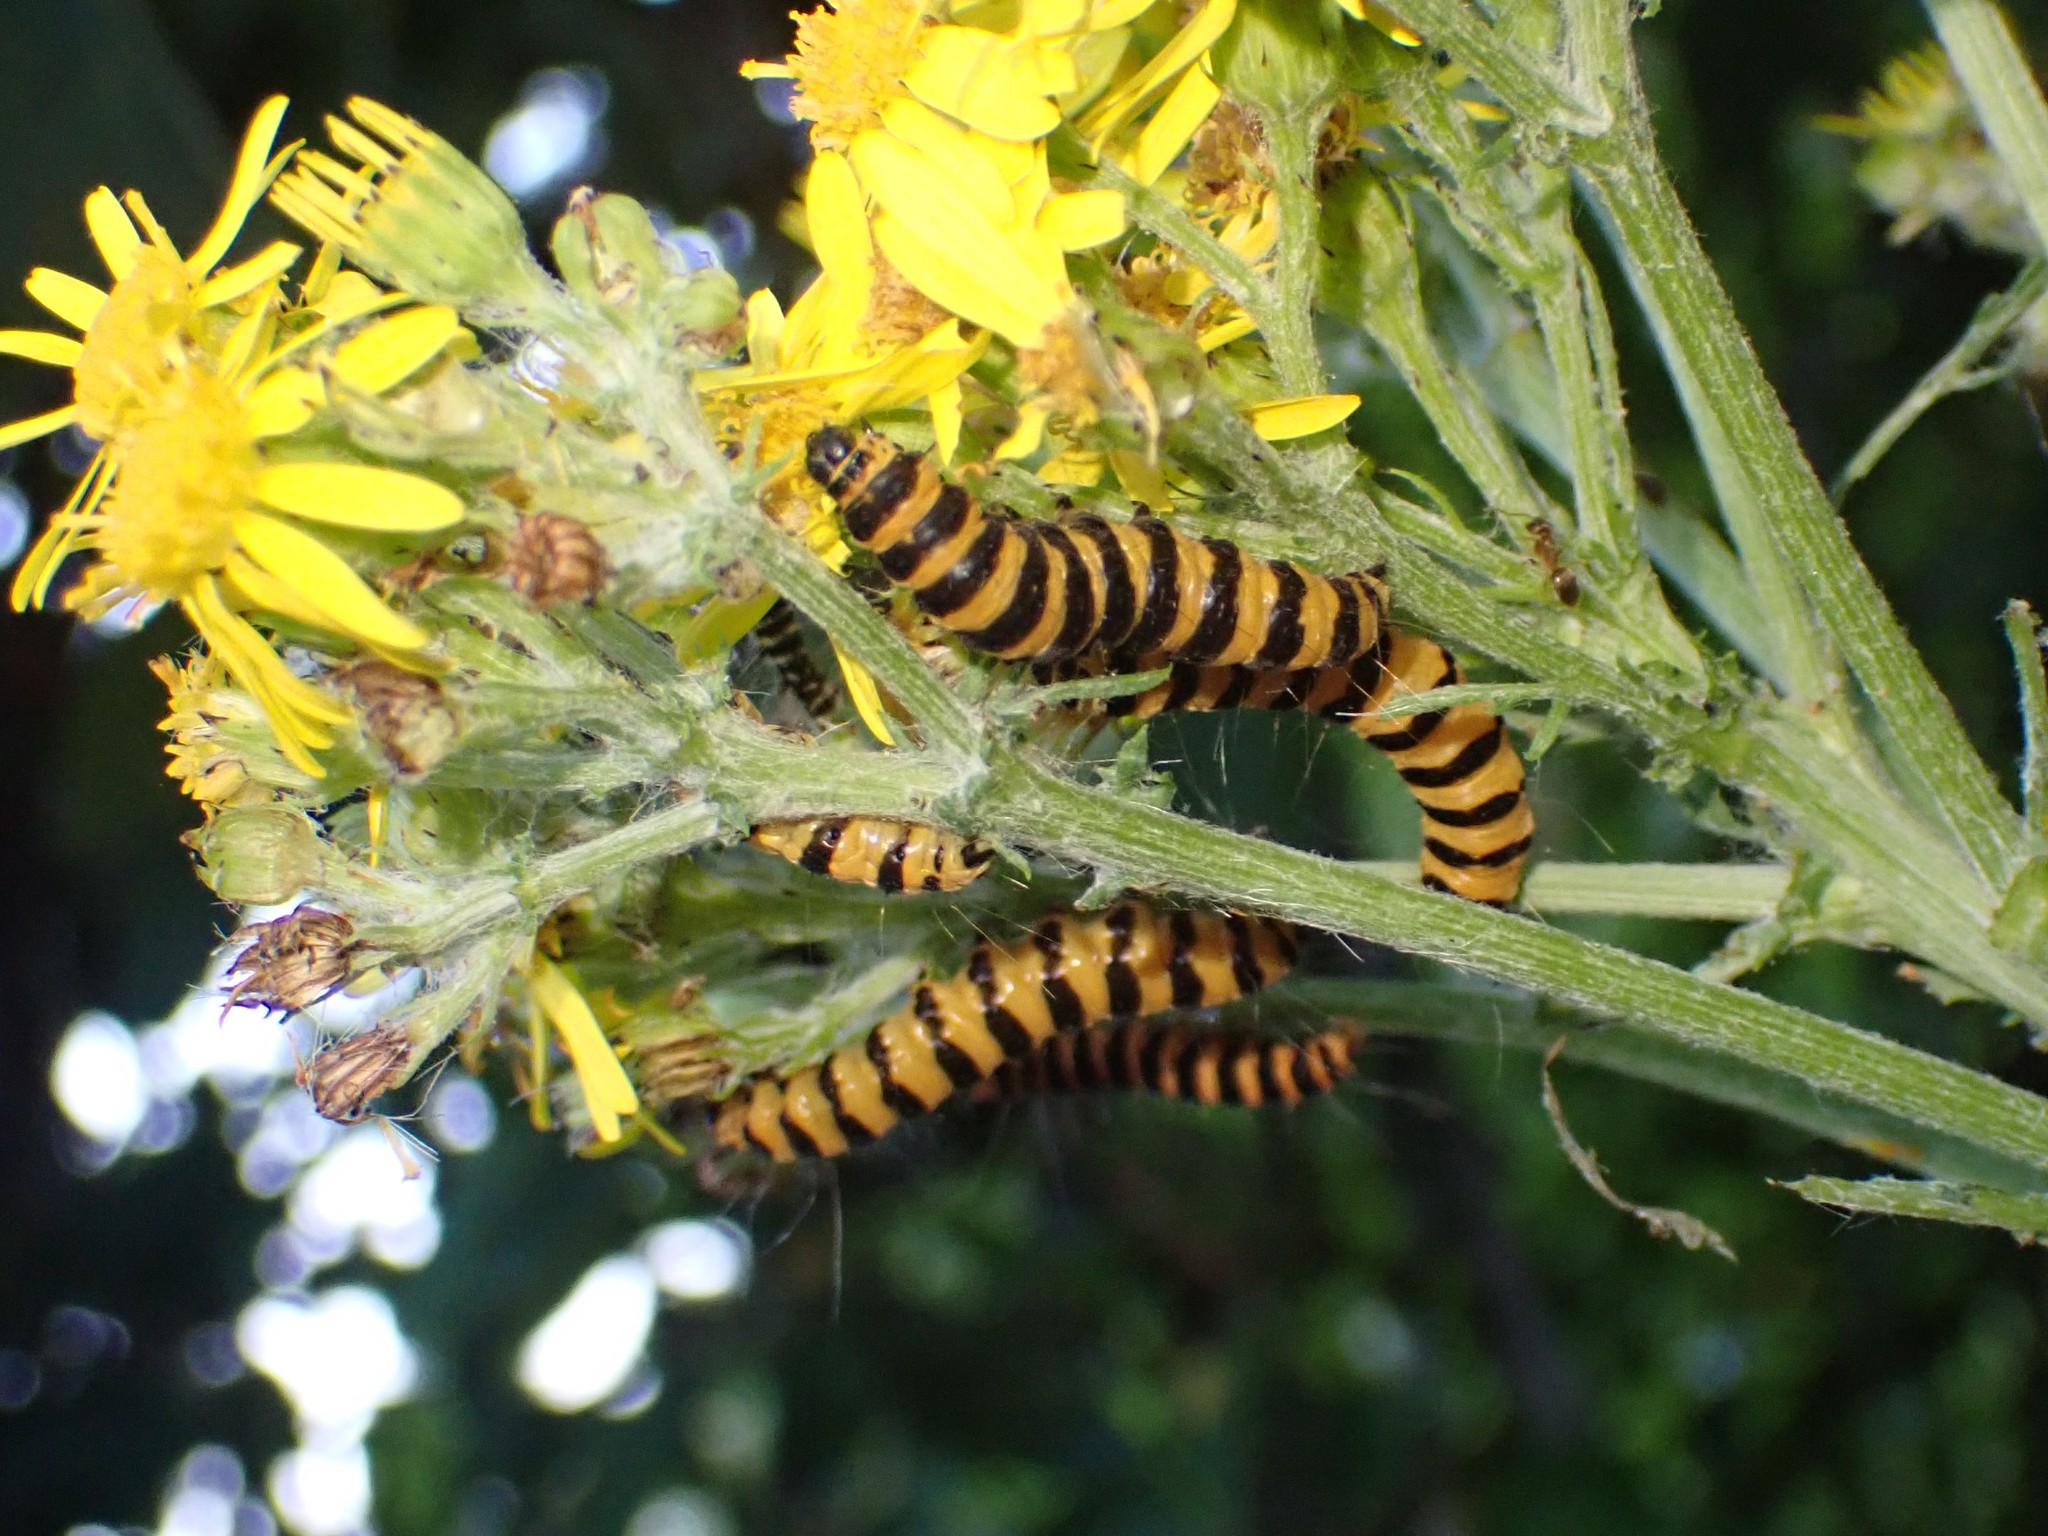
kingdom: Animalia
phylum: Arthropoda
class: Insecta
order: Lepidoptera
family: Erebidae
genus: Tyria
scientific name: Tyria jacobaeae
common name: Cinnabar
